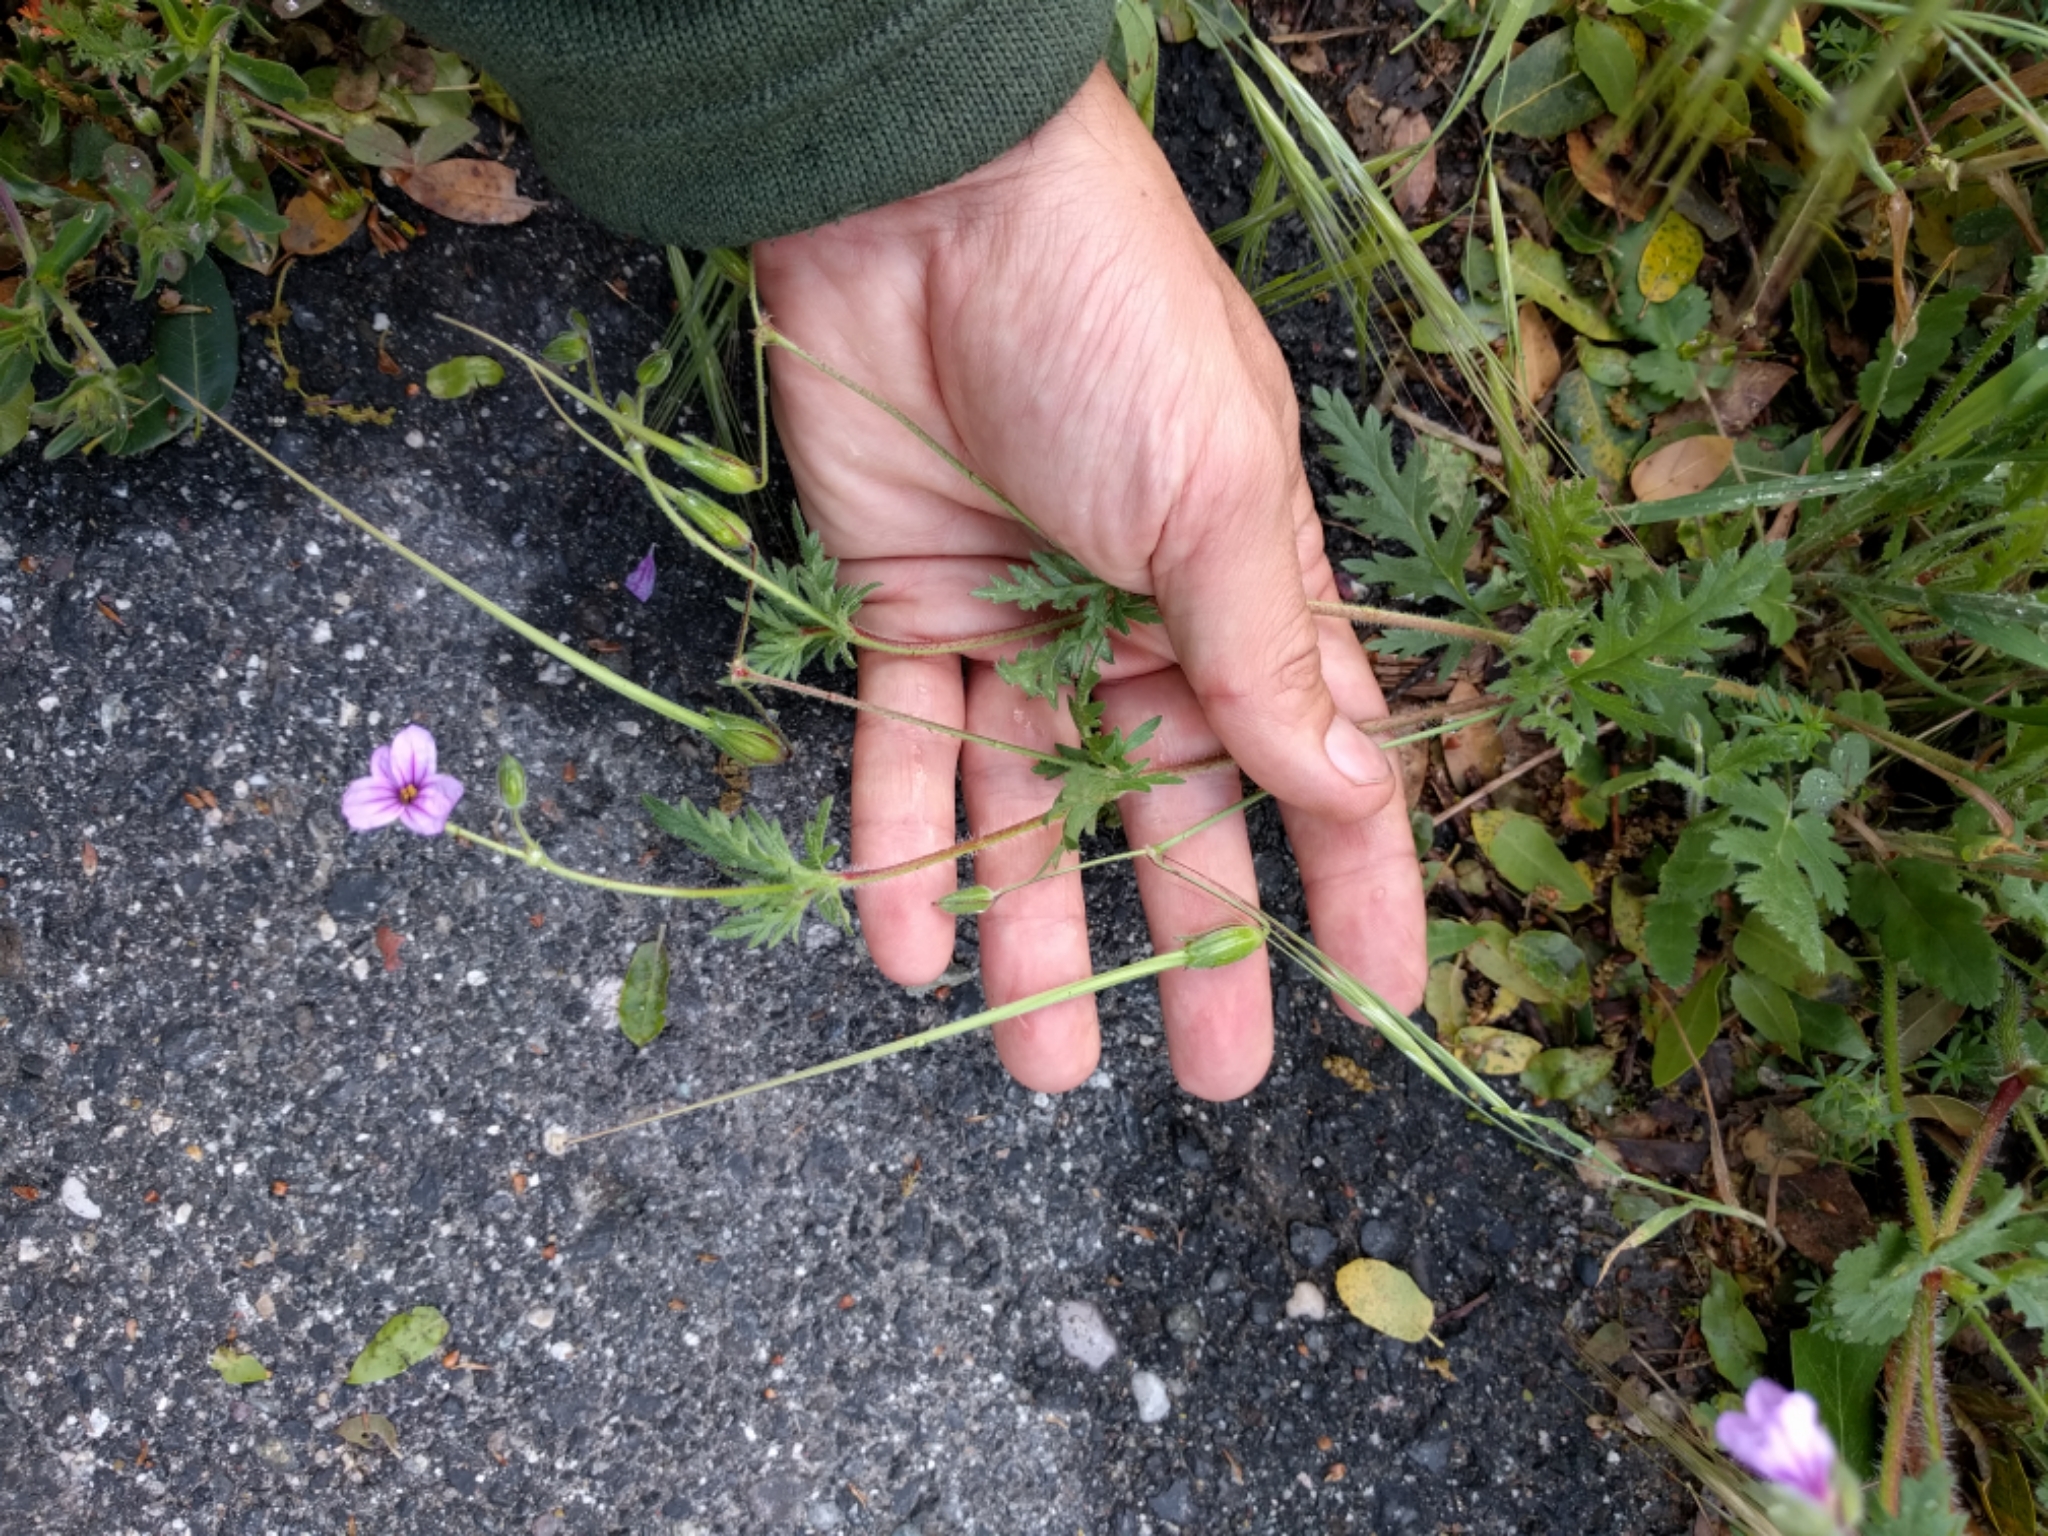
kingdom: Plantae
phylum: Tracheophyta
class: Magnoliopsida
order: Geraniales
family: Geraniaceae
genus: Erodium
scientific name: Erodium botrys
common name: Mediterranean stork's-bill
